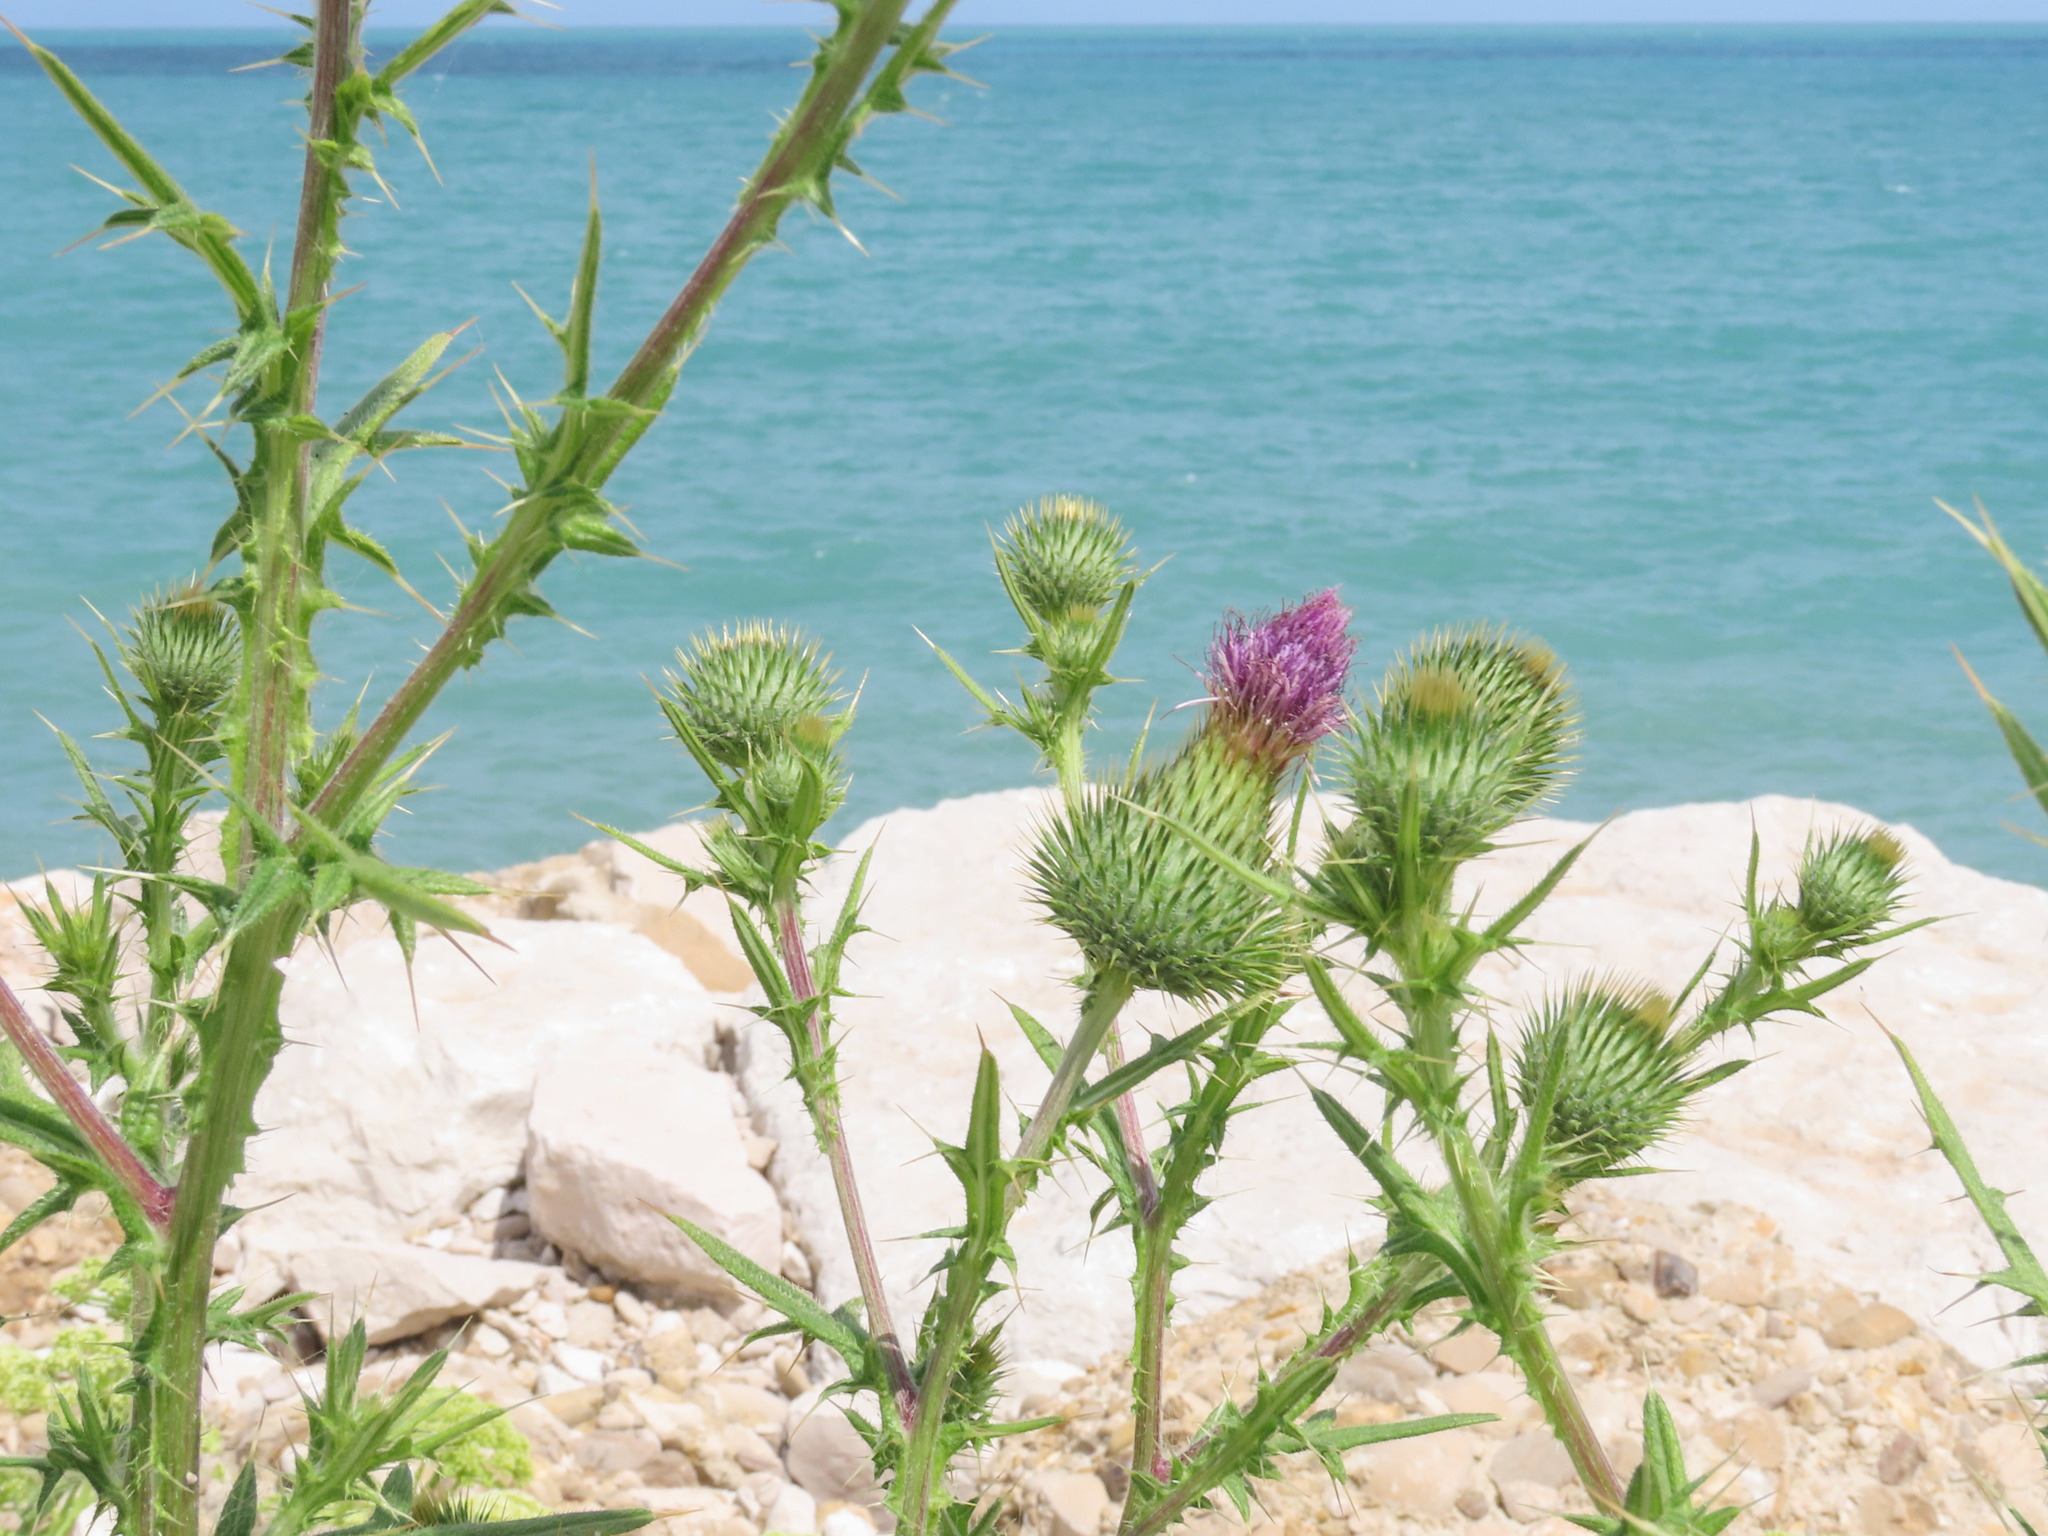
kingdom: Plantae
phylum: Tracheophyta
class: Magnoliopsida
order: Asterales
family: Asteraceae
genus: Cirsium
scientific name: Cirsium vulgare
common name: Bull thistle
